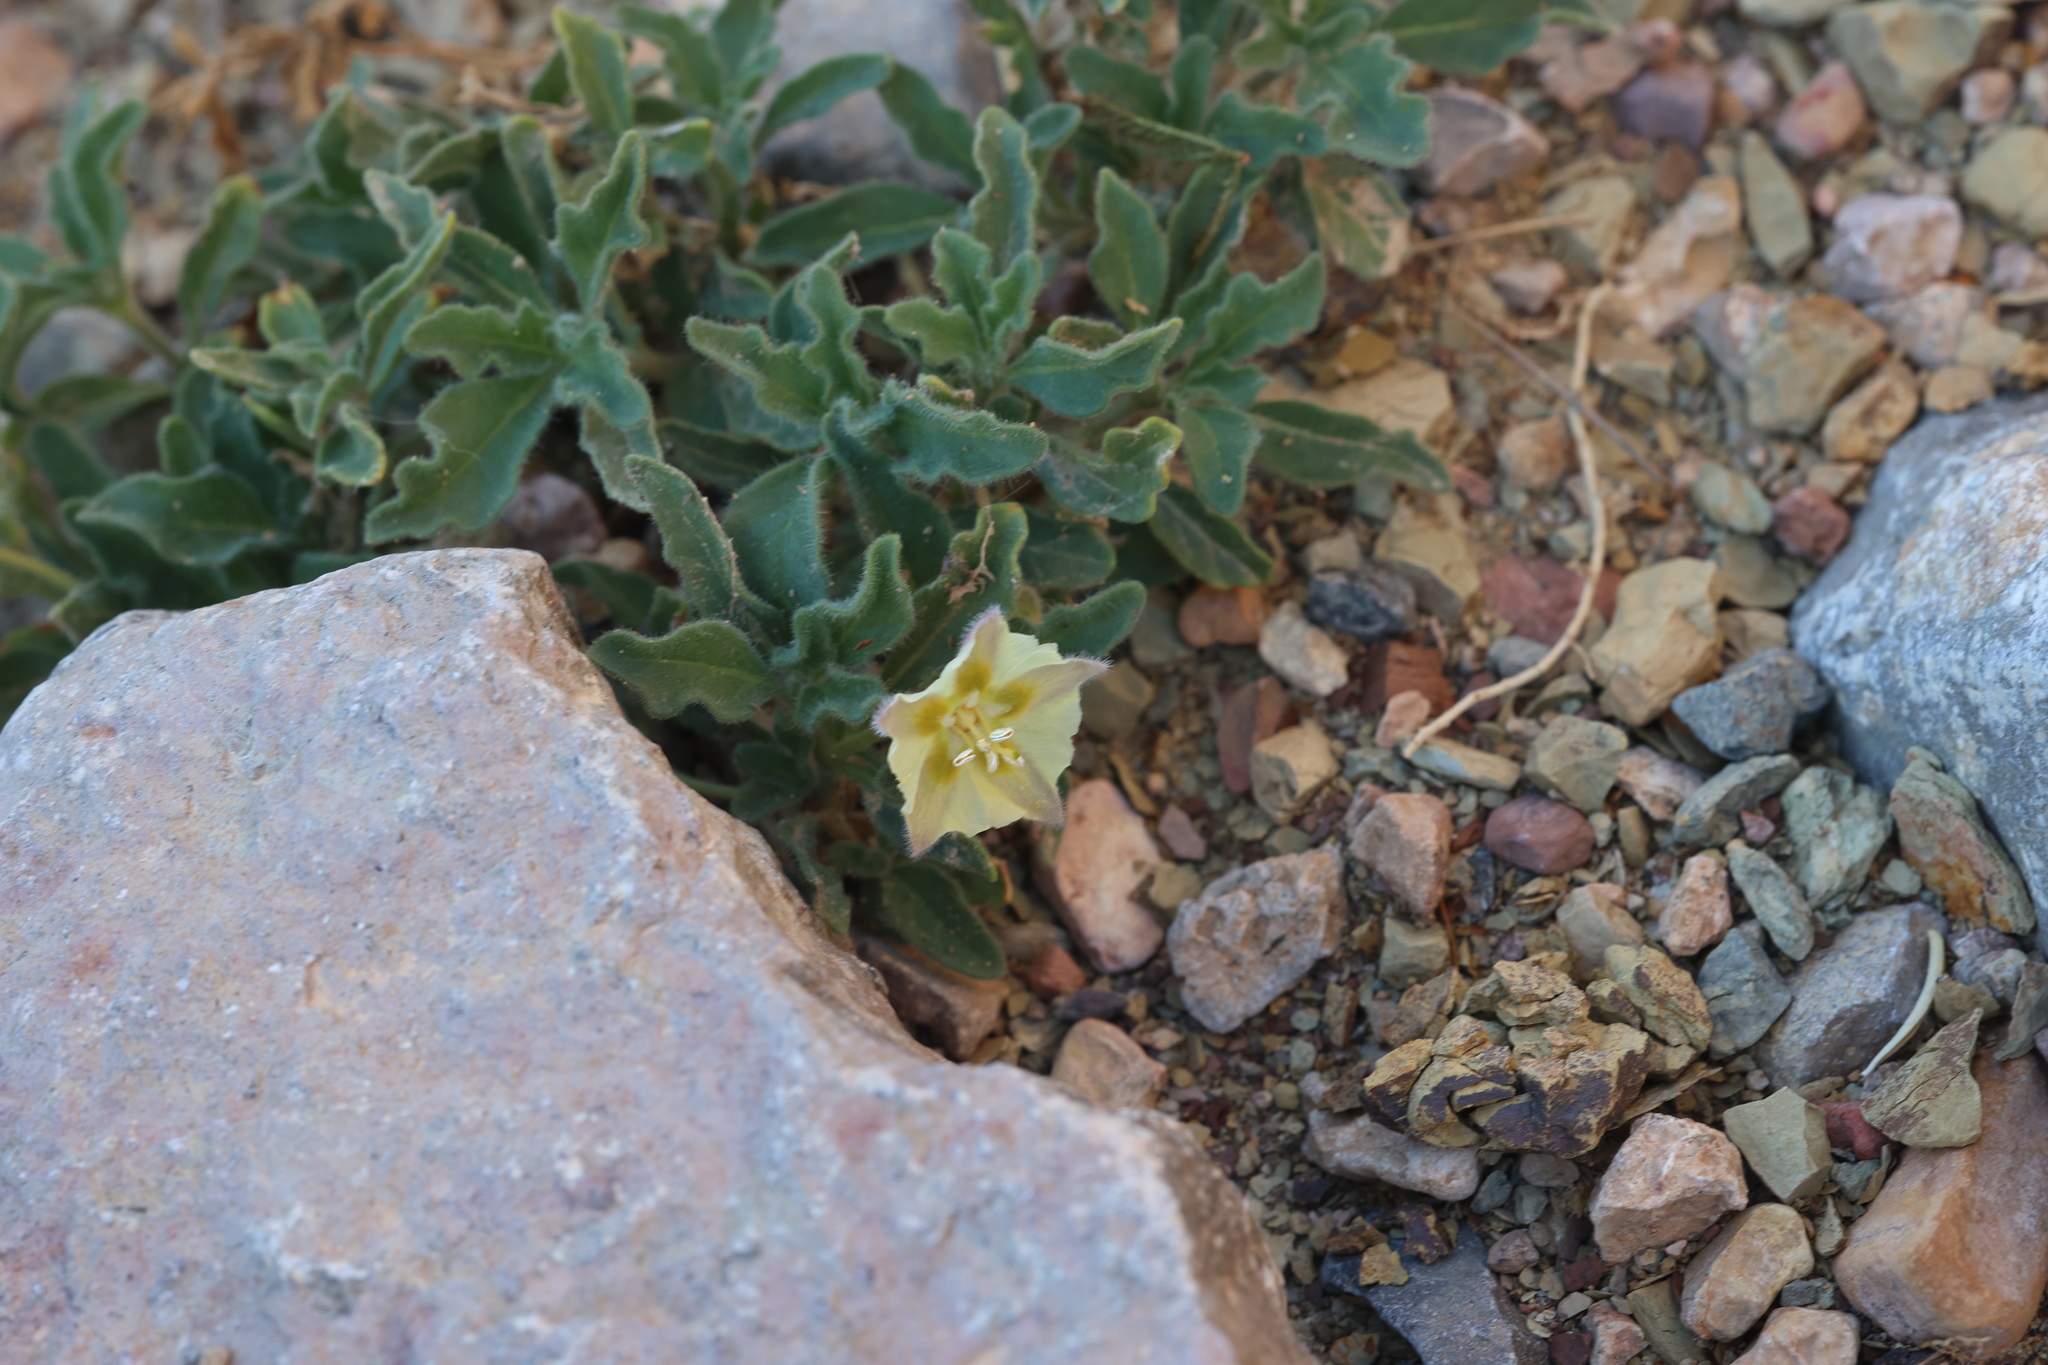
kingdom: Plantae
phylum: Tracheophyta
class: Magnoliopsida
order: Solanales
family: Solanaceae
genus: Chamaesaracha
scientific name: Chamaesaracha sordida
